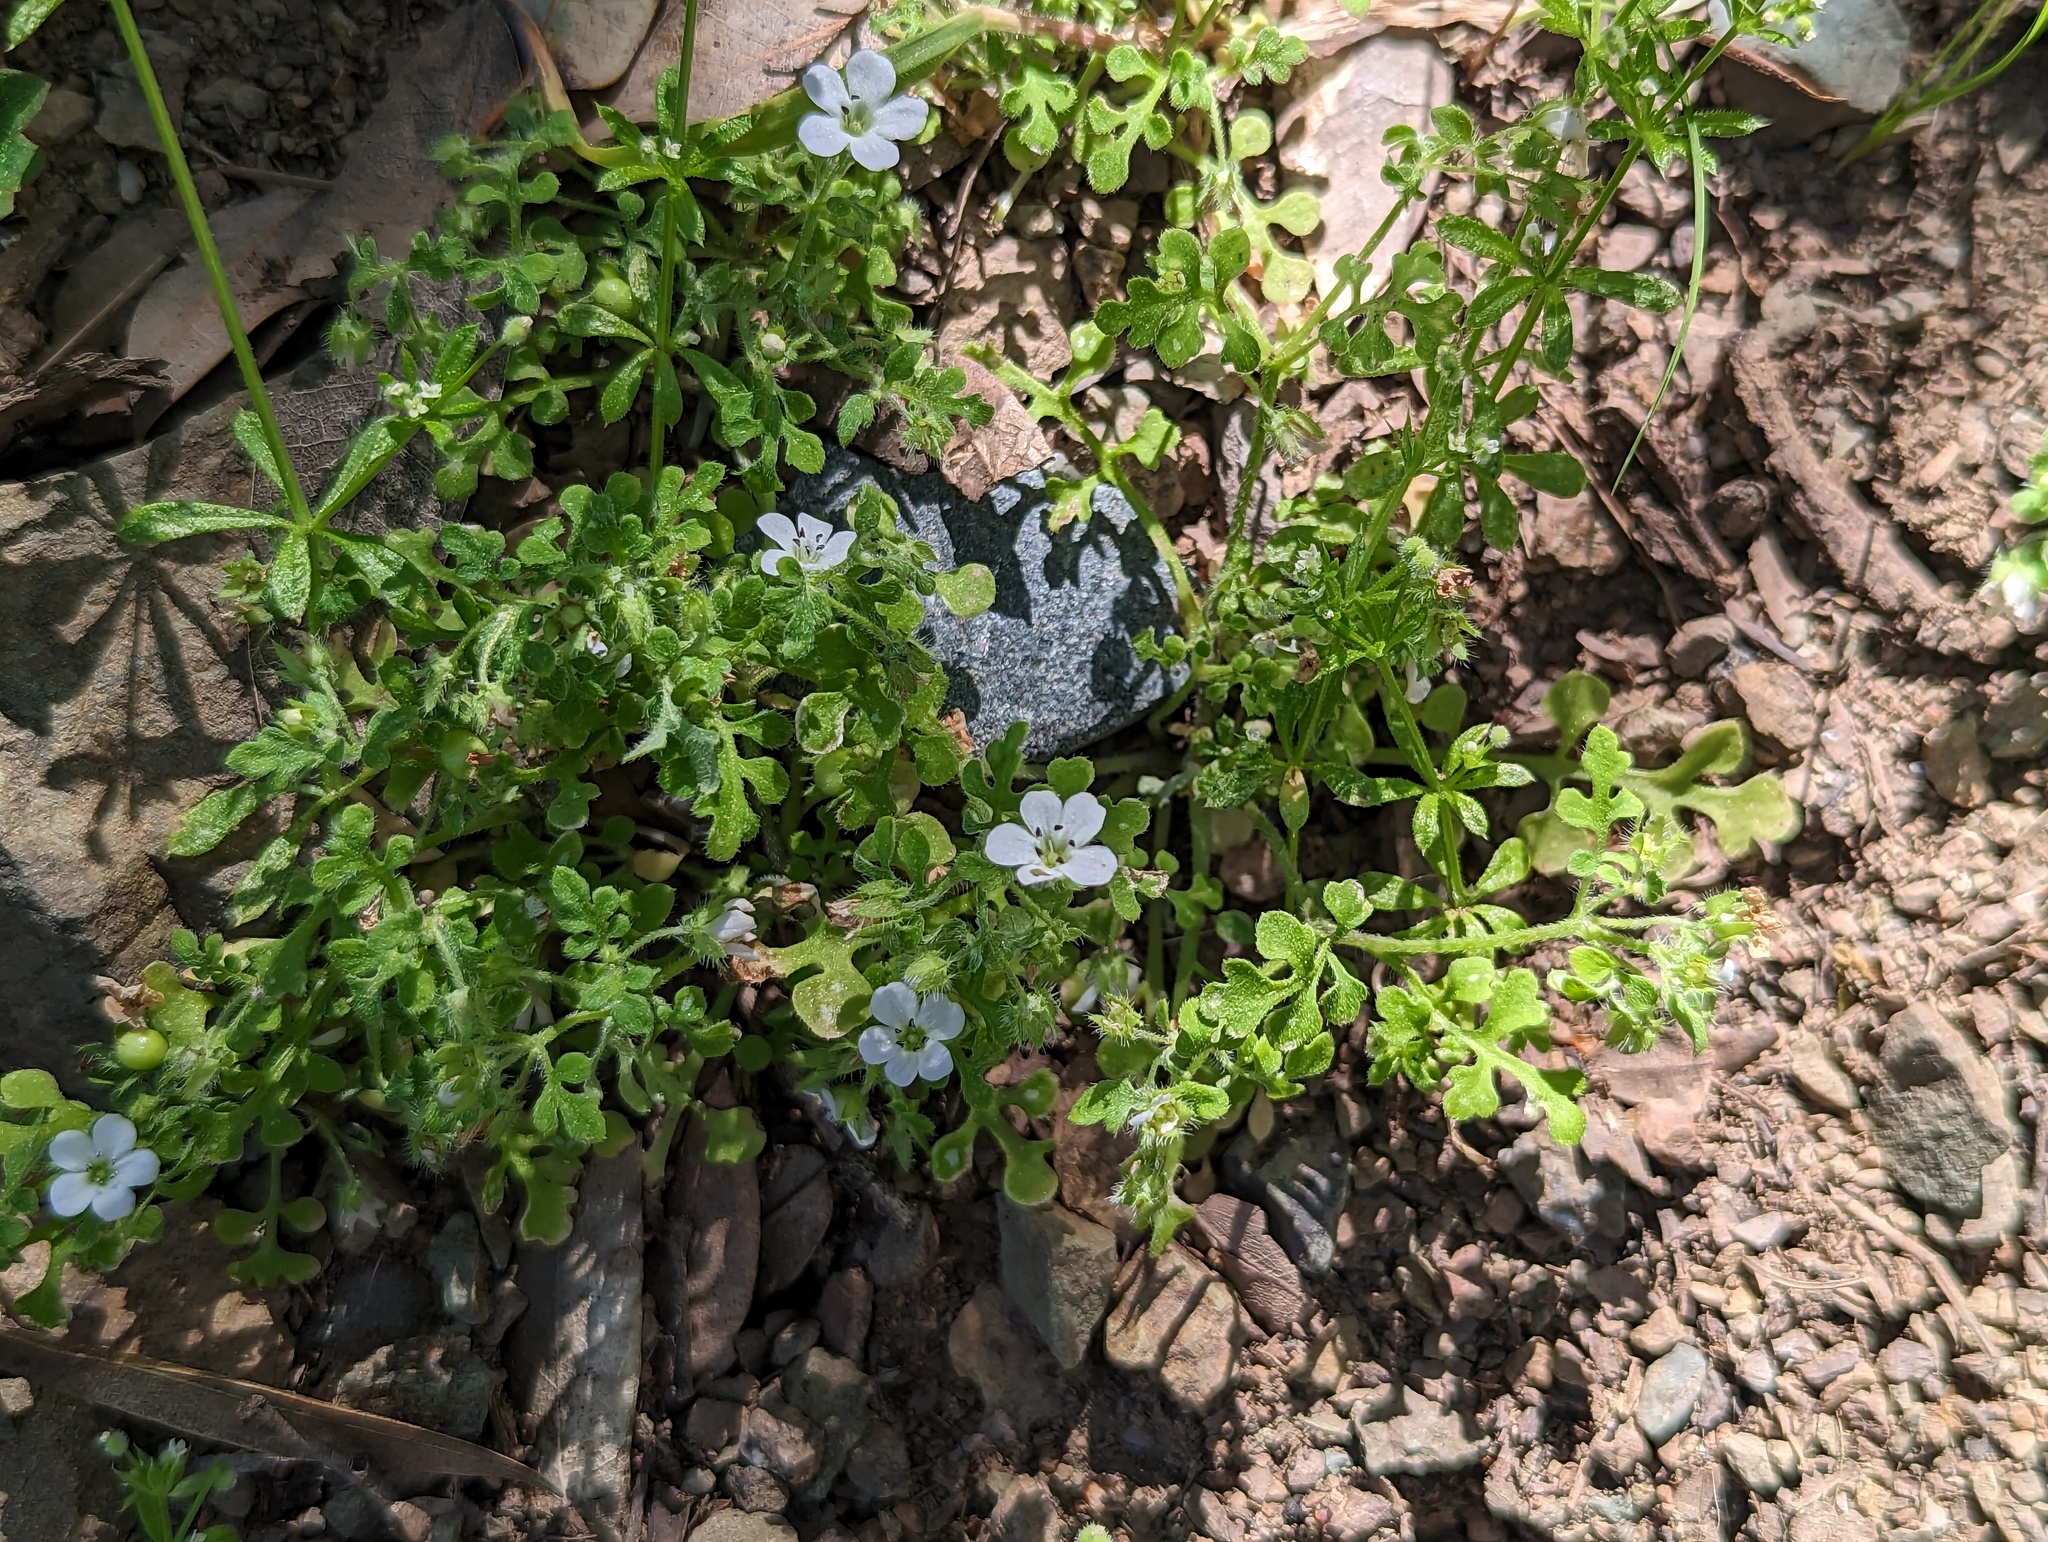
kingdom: Plantae
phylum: Tracheophyta
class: Magnoliopsida
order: Boraginales
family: Hydrophyllaceae
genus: Nemophila
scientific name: Nemophila heterophylla
